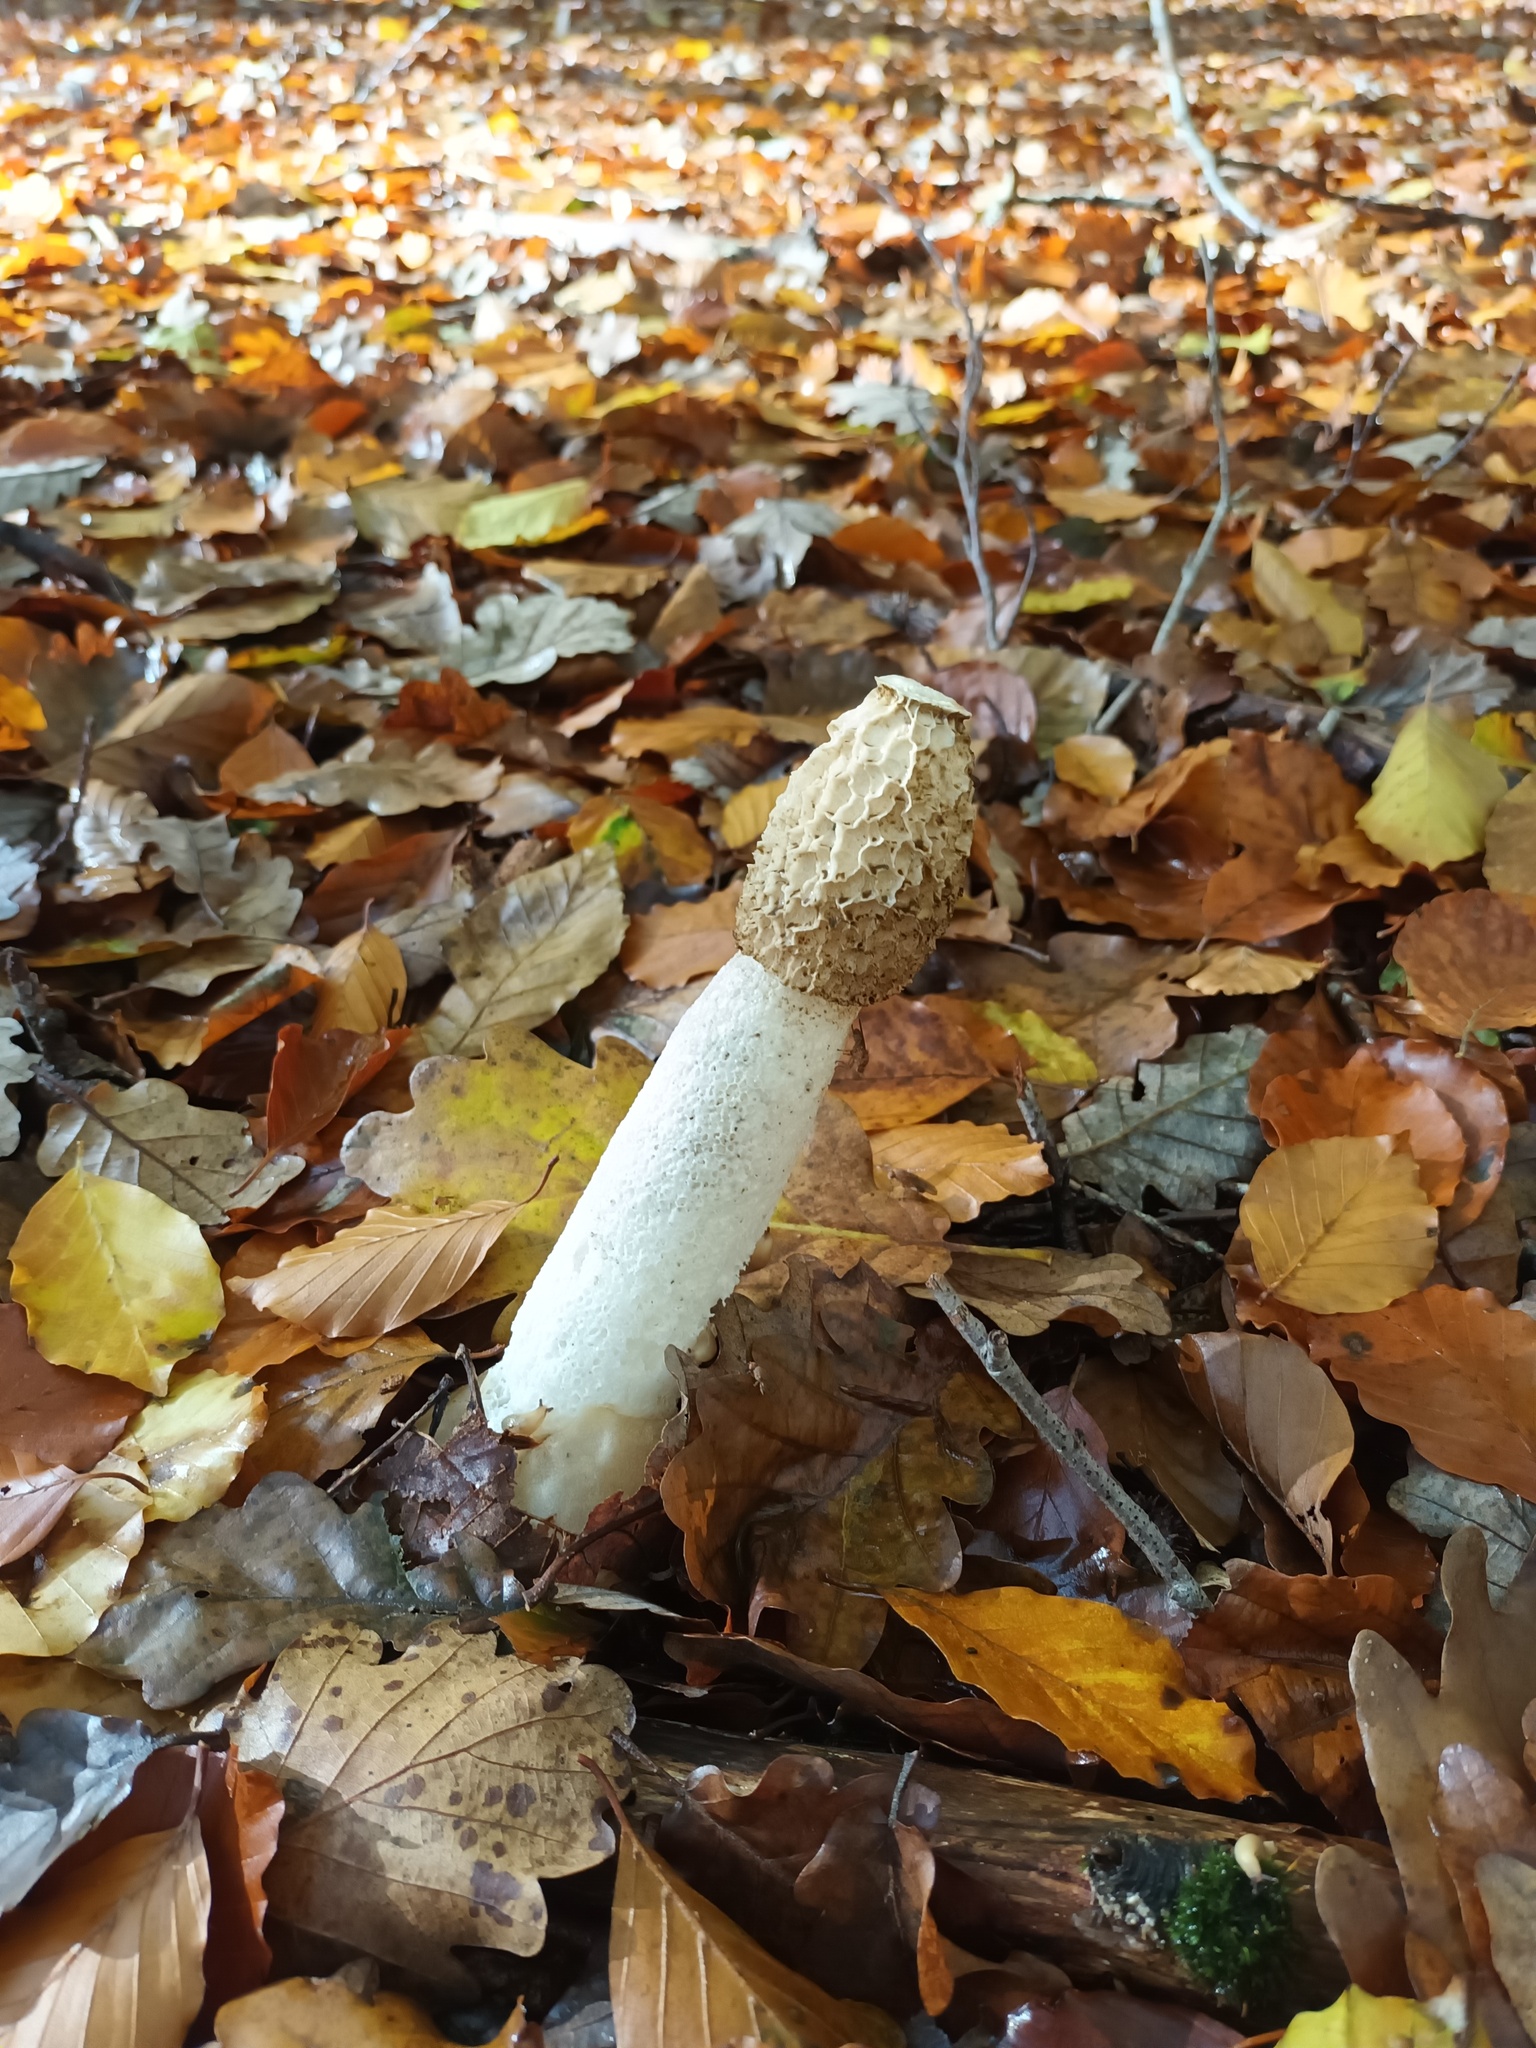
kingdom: Fungi
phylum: Basidiomycota
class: Agaricomycetes
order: Phallales
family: Phallaceae
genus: Phallus
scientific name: Phallus impudicus
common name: Common stinkhorn
